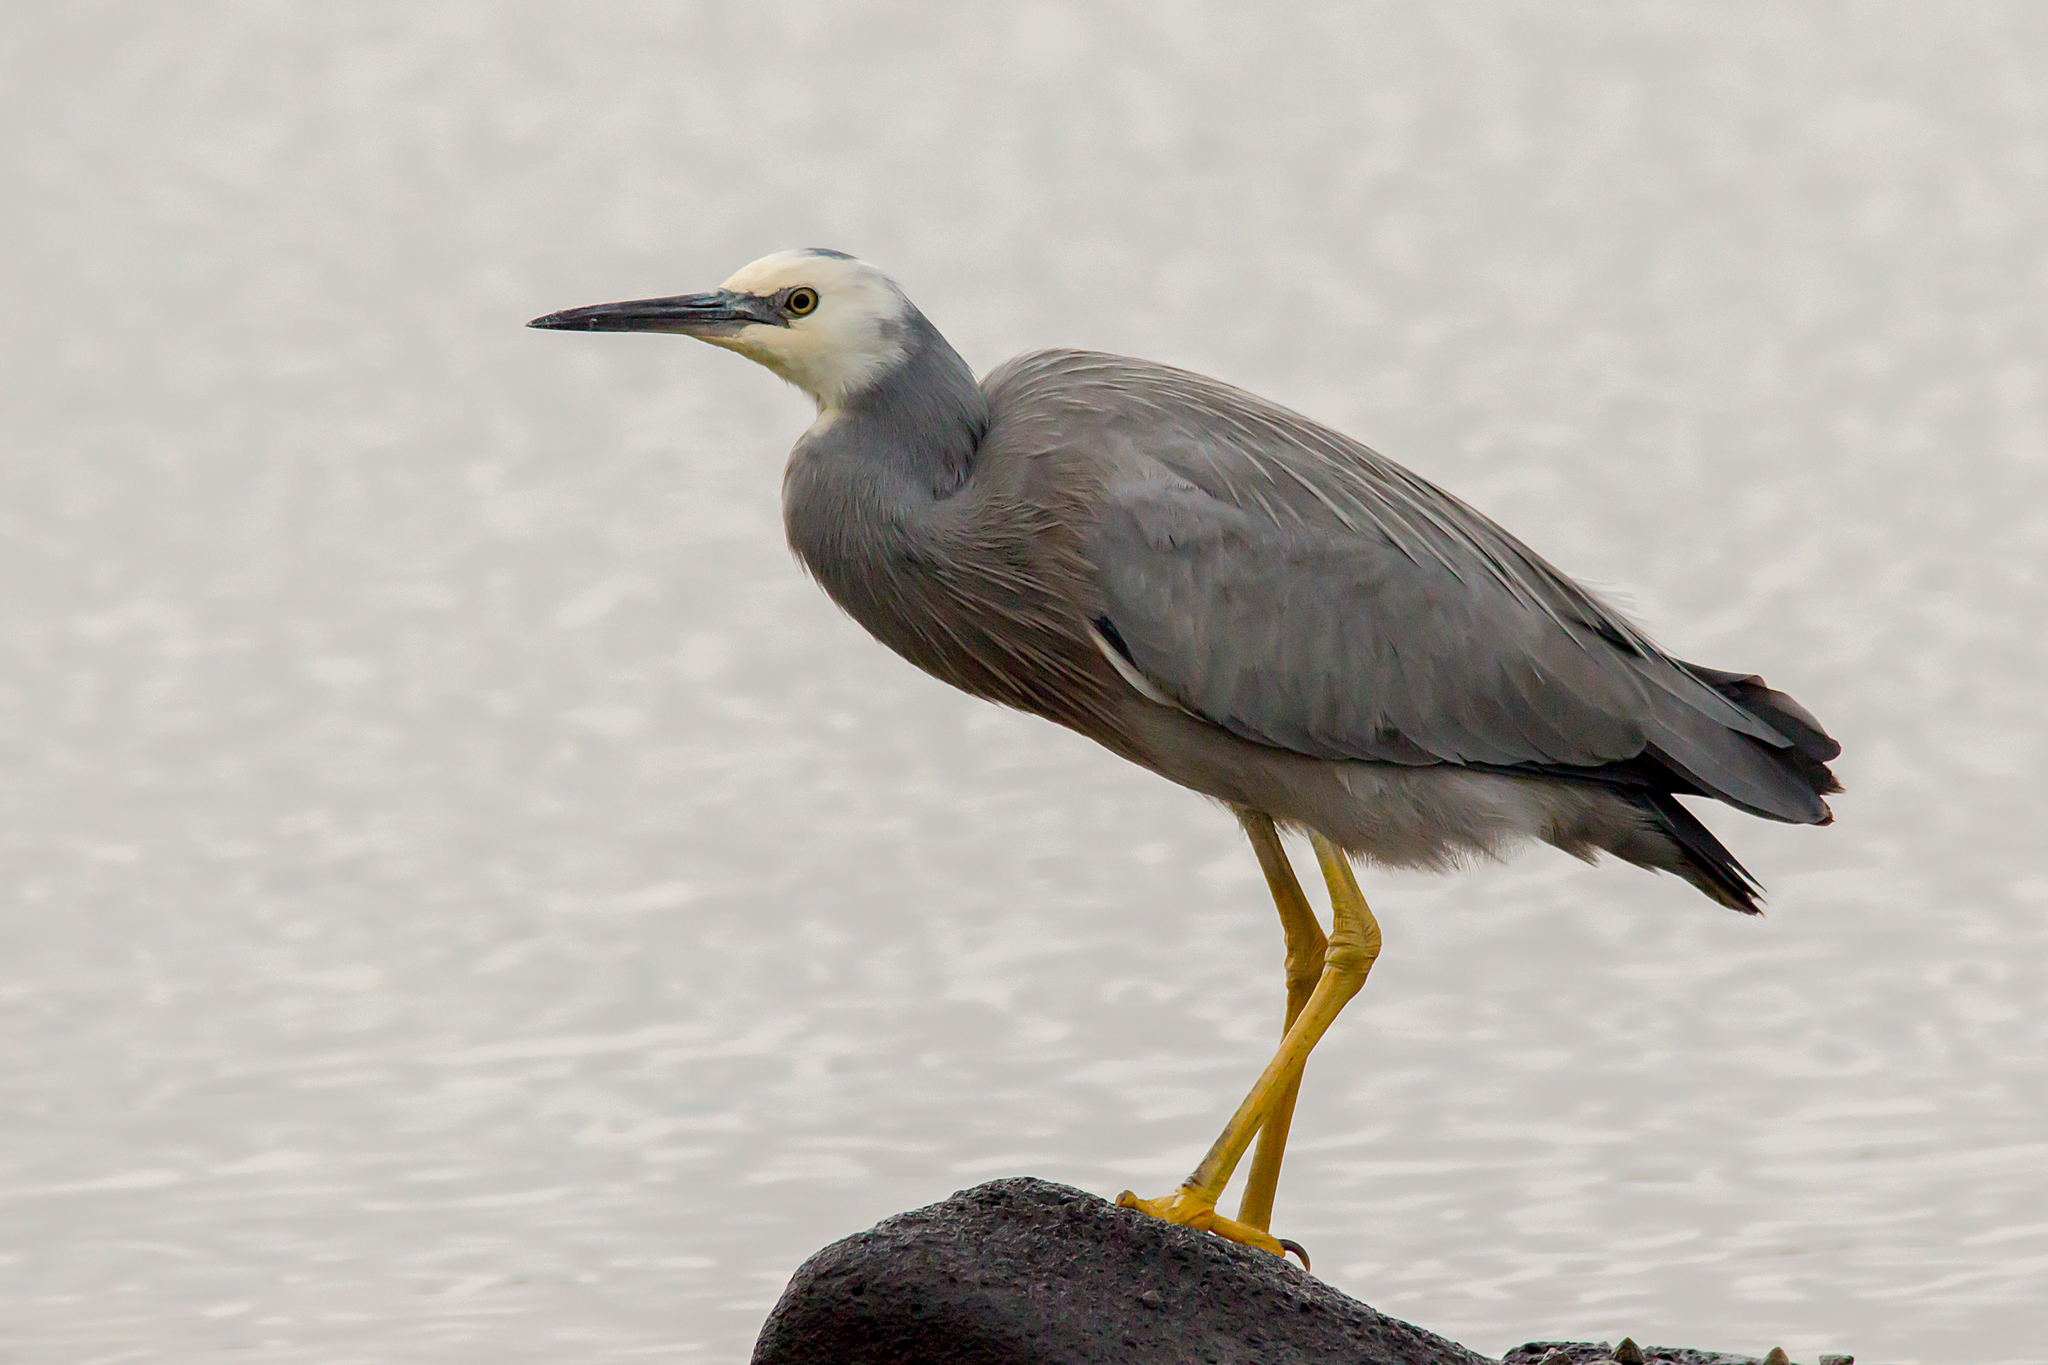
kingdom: Animalia
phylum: Chordata
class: Aves
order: Pelecaniformes
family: Ardeidae
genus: Egretta
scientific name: Egretta novaehollandiae
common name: White-faced heron
